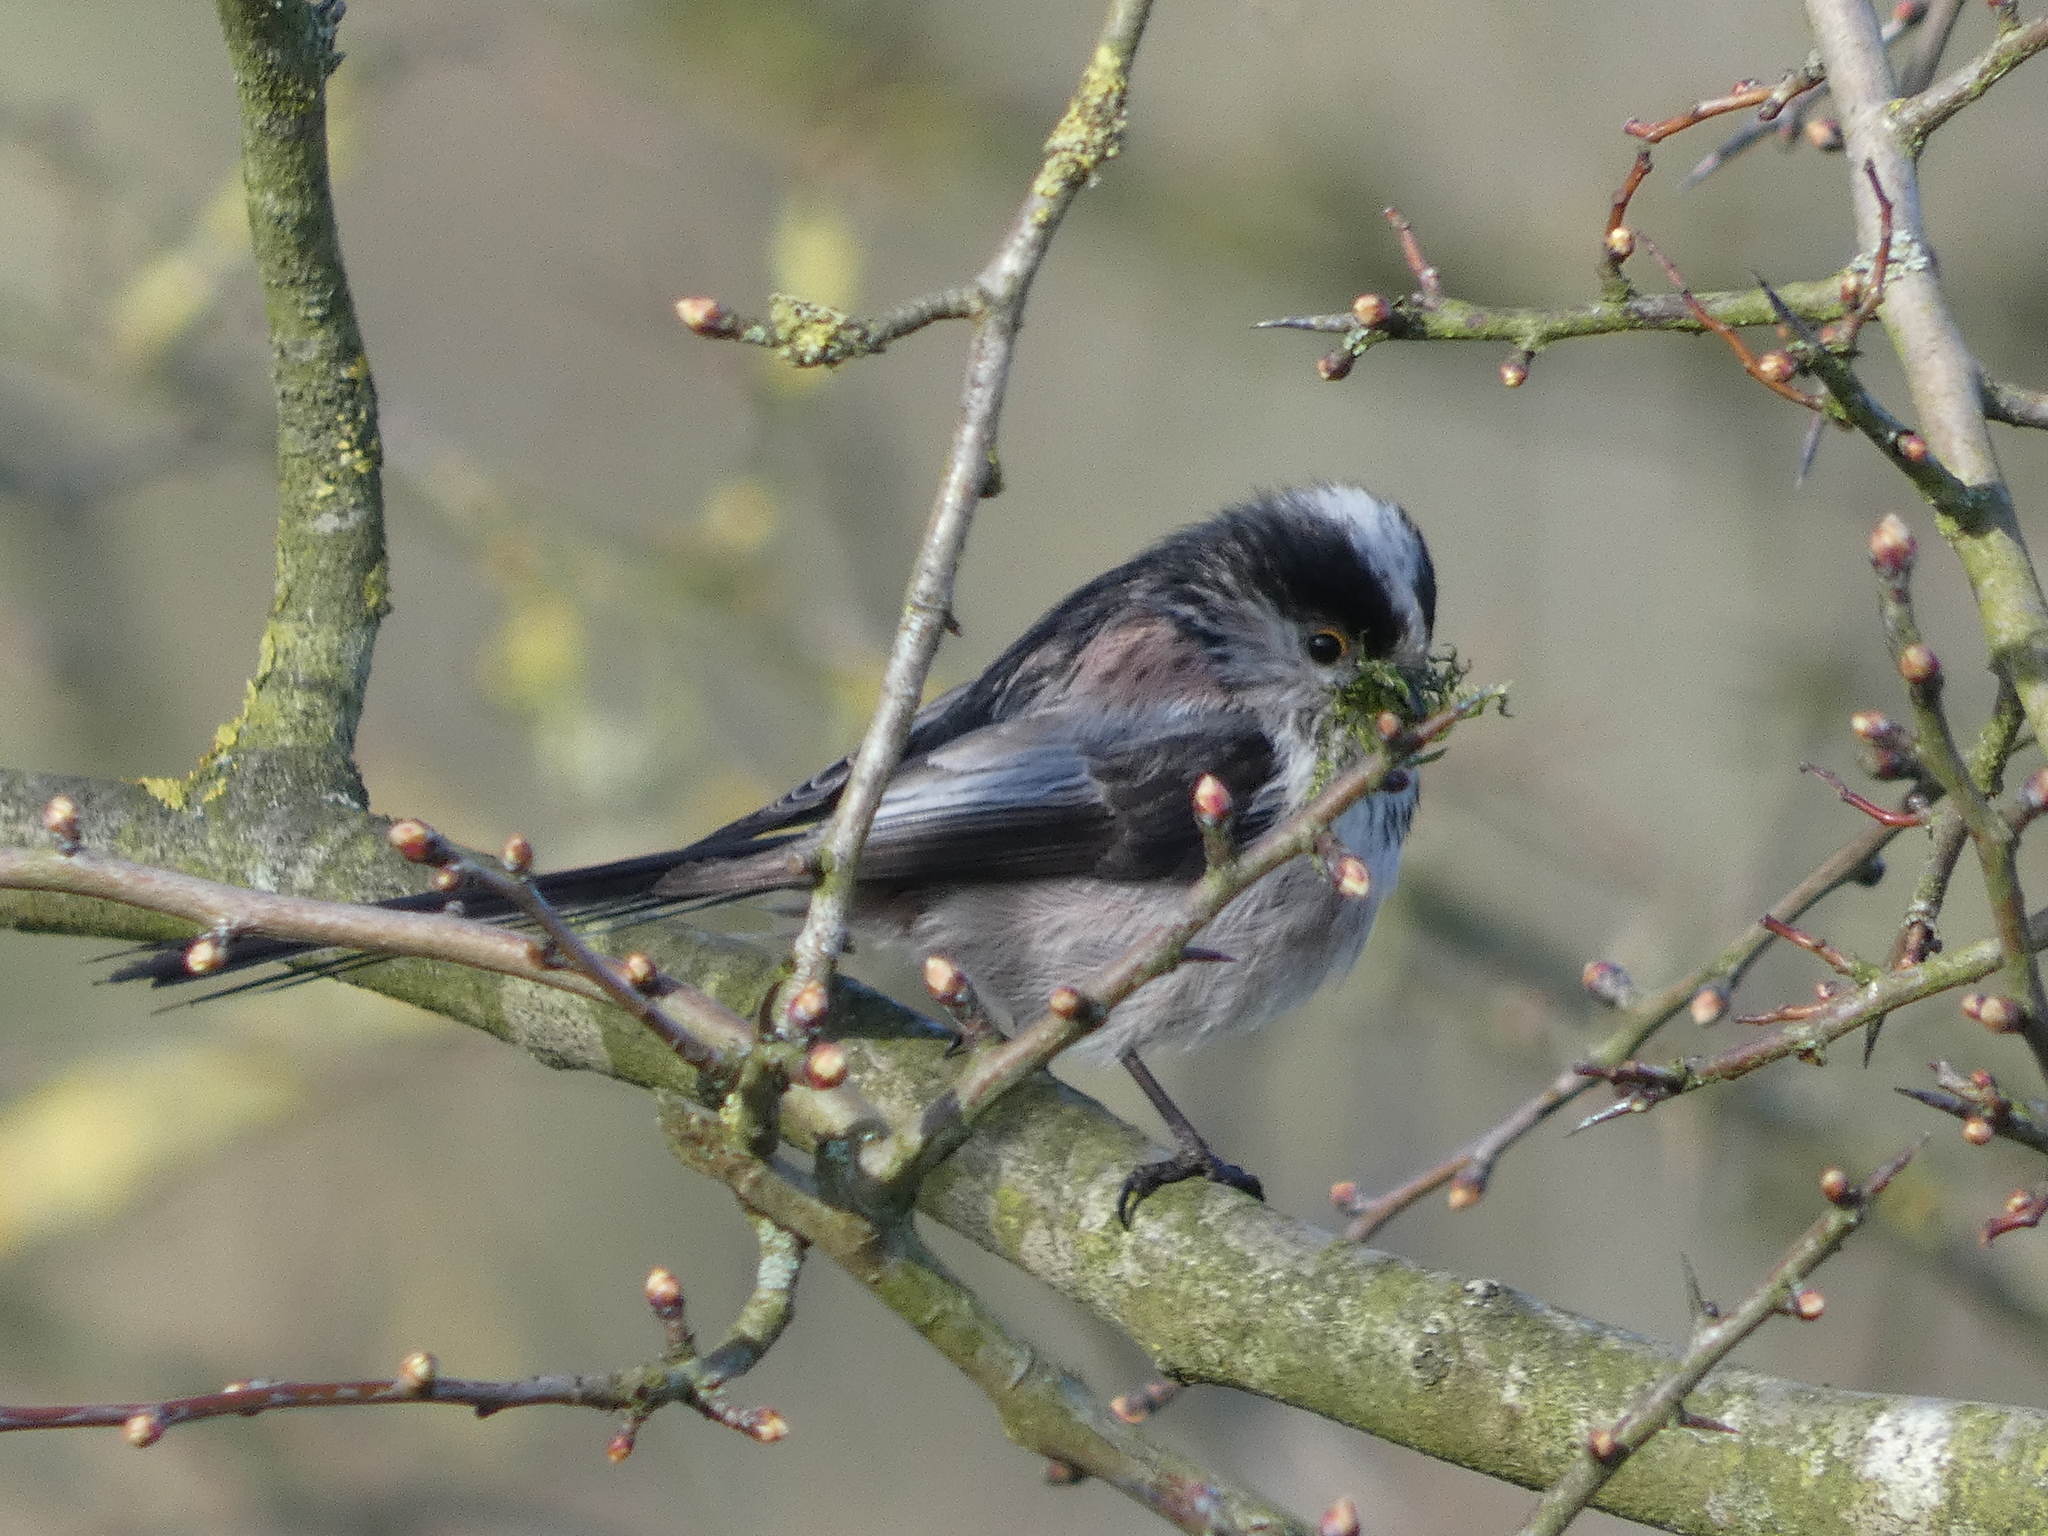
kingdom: Animalia
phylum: Chordata
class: Aves
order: Passeriformes
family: Aegithalidae
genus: Aegithalos
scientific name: Aegithalos caudatus
